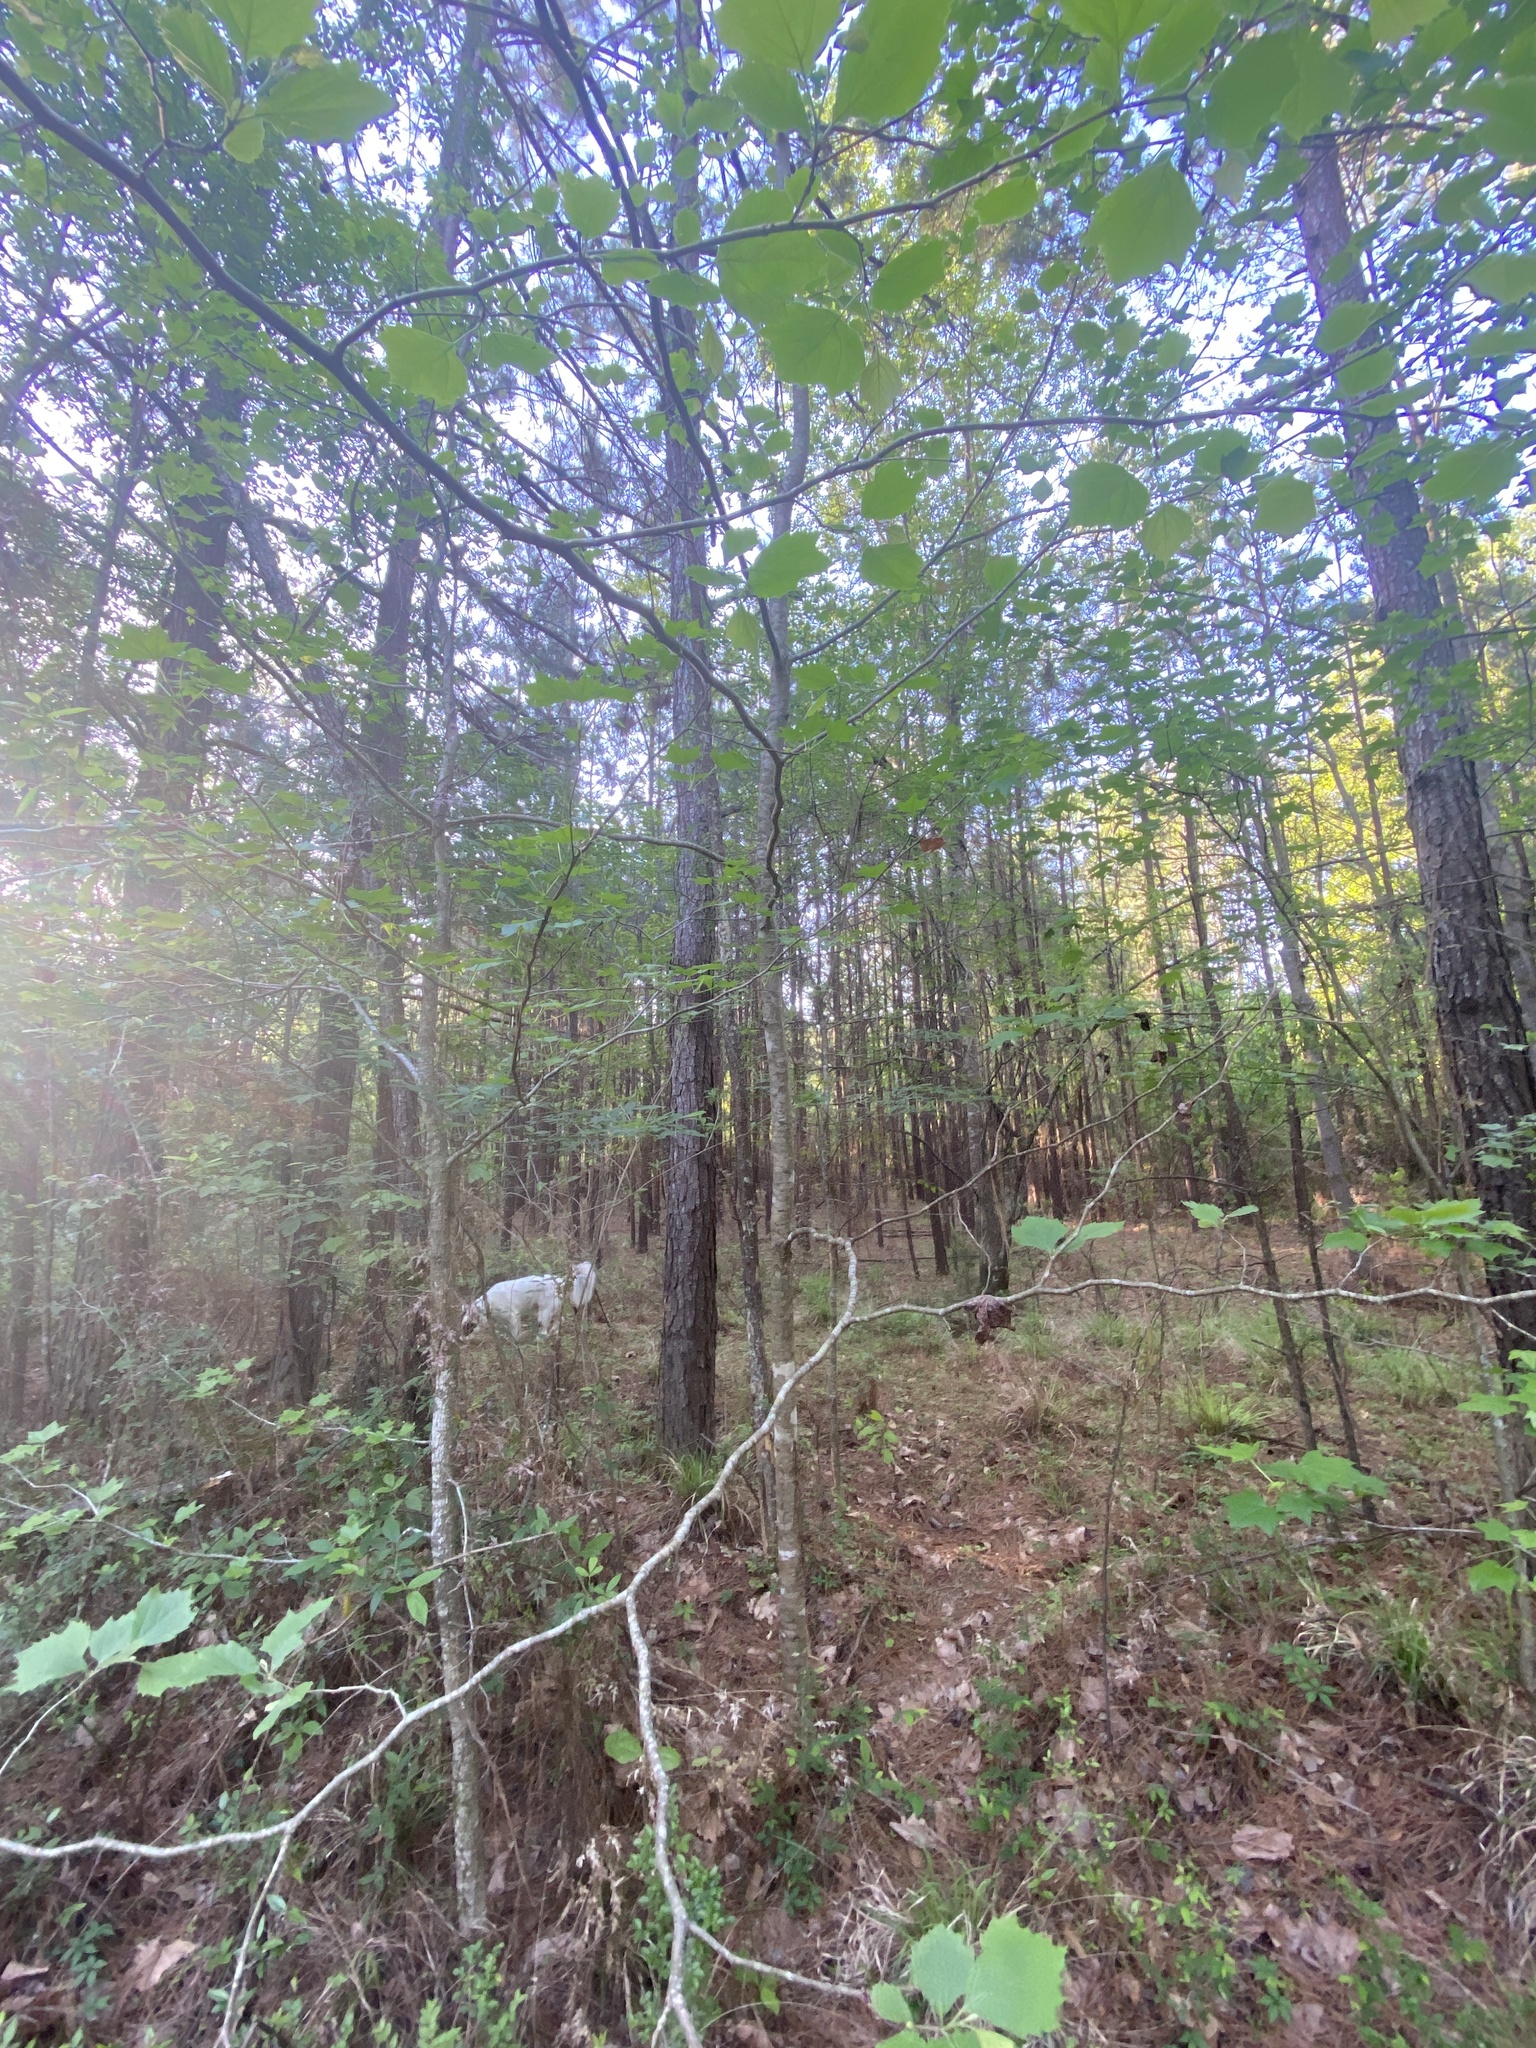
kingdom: Plantae
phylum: Tracheophyta
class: Magnoliopsida
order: Proteales
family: Platanaceae
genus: Platanus
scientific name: Platanus occidentalis
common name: American sycamore
